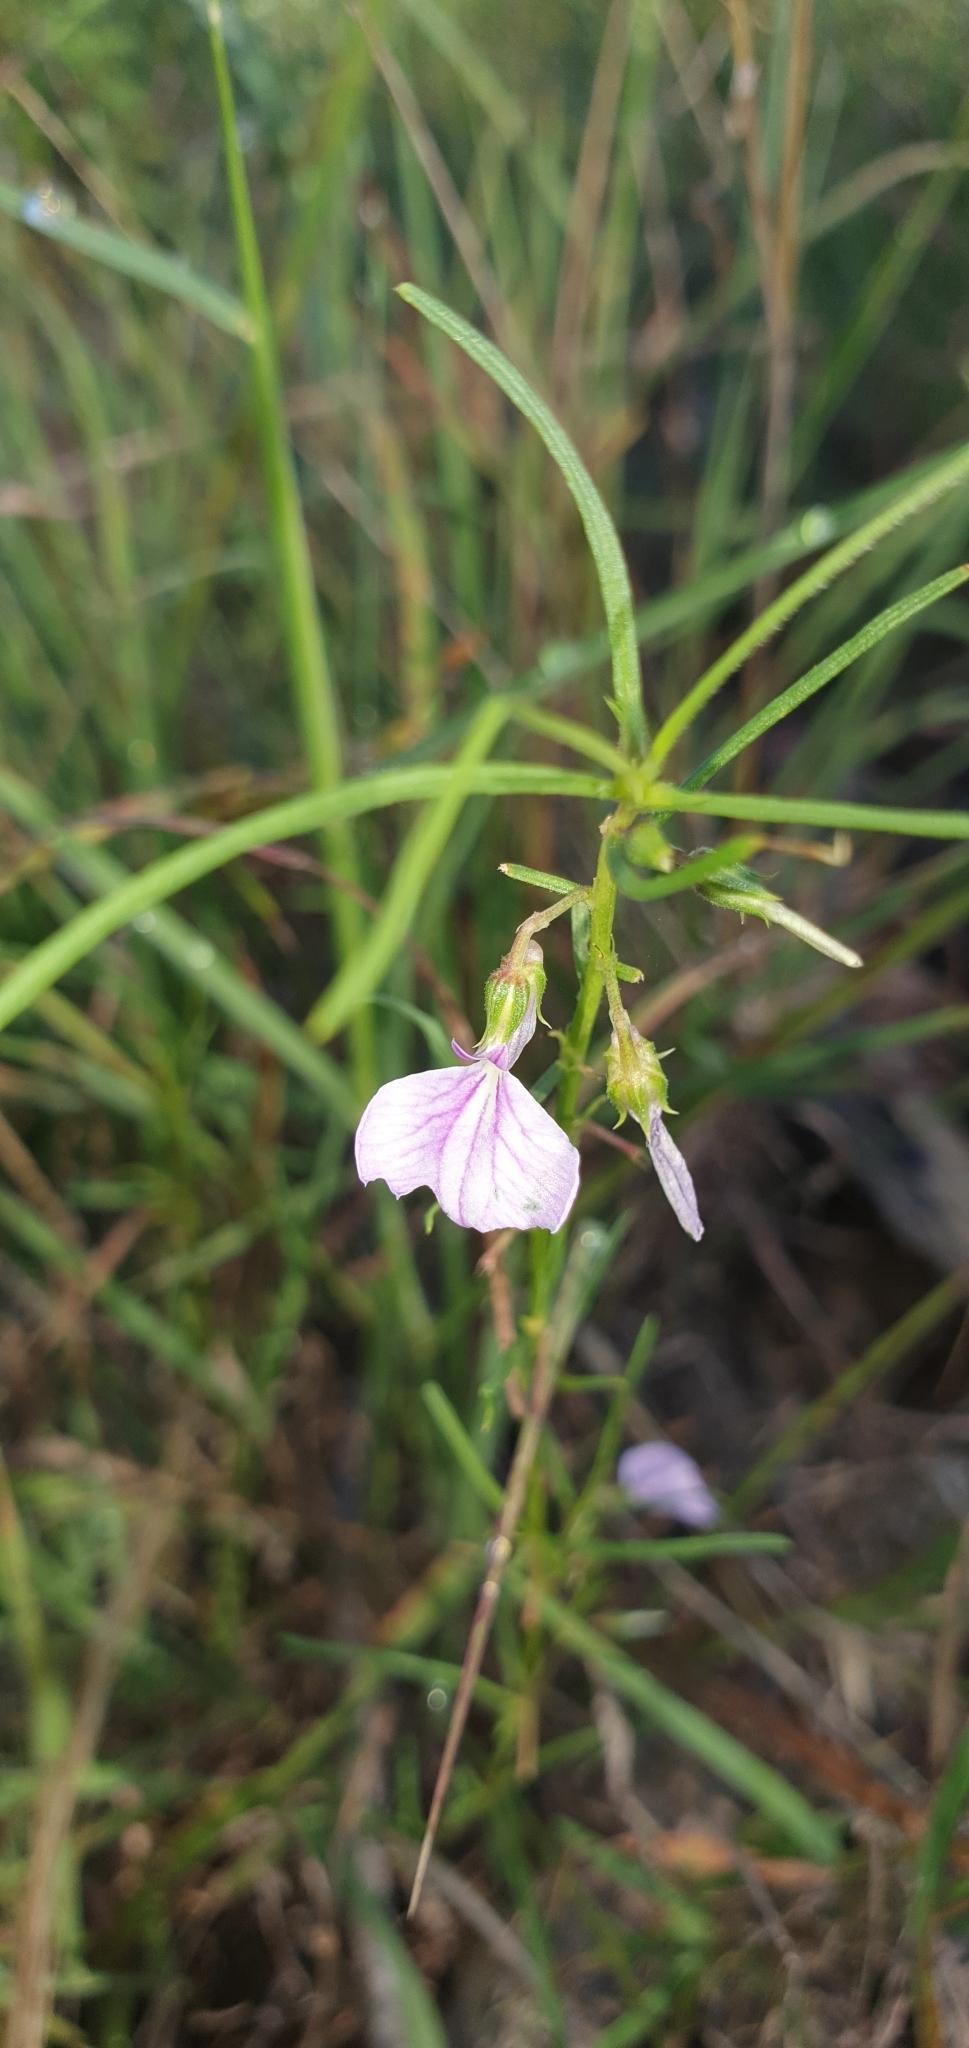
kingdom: Plantae
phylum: Tracheophyta
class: Magnoliopsida
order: Malpighiales
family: Violaceae
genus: Pigea
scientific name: Pigea enneasperma
